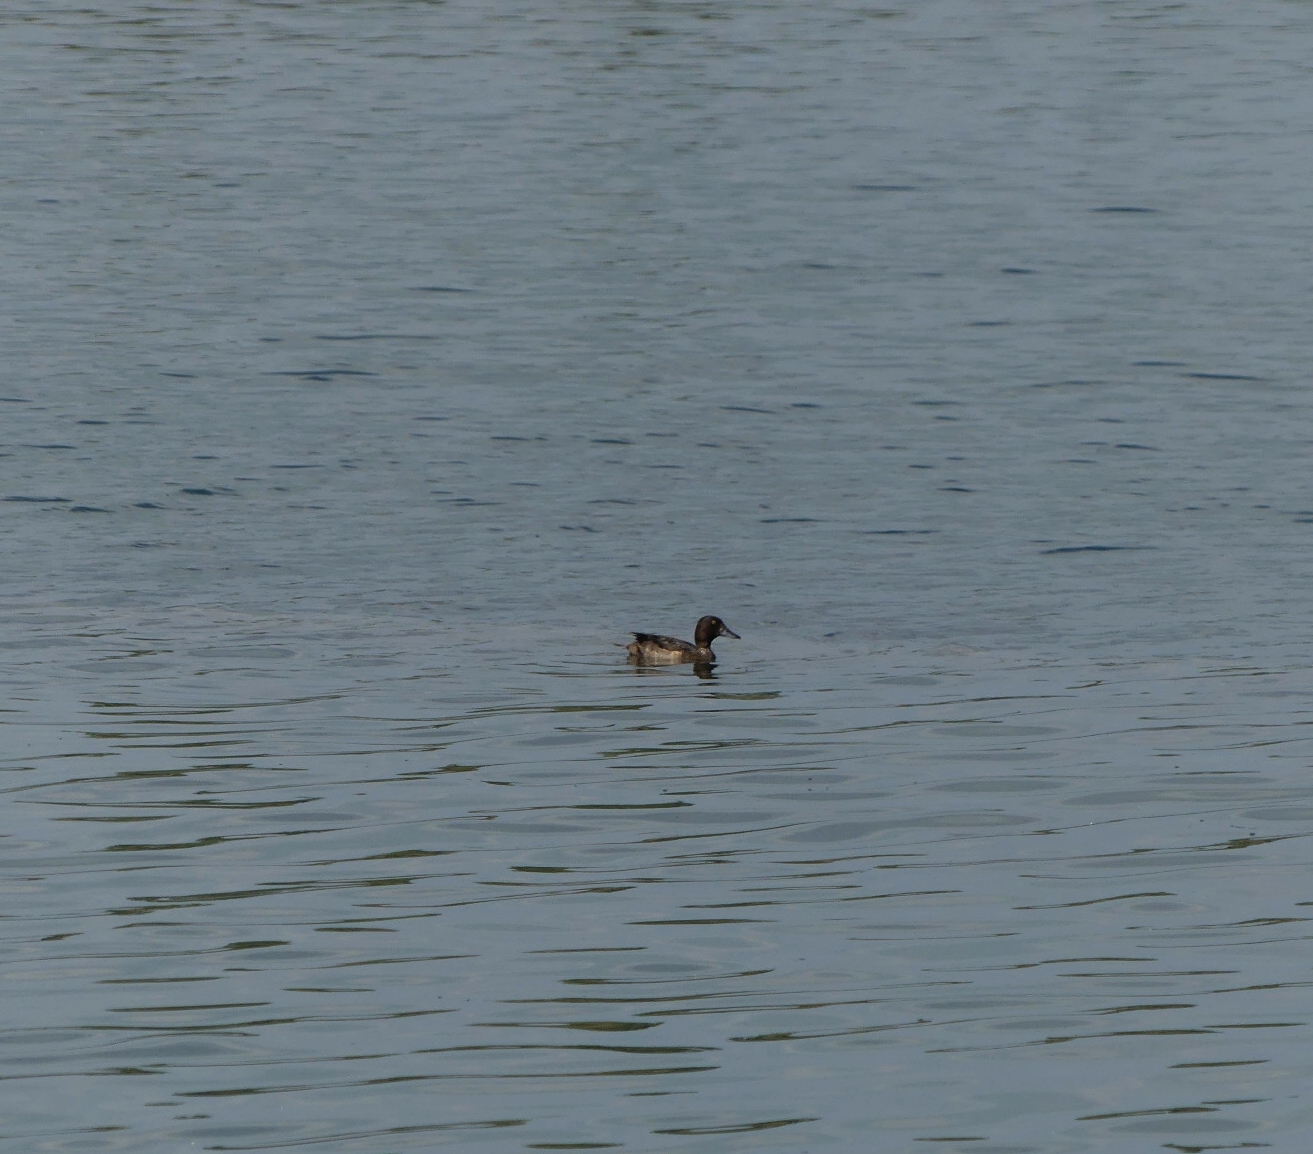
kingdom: Animalia
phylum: Chordata
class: Aves
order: Anseriformes
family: Anatidae
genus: Aythya
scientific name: Aythya fuligula
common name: Tufted duck
